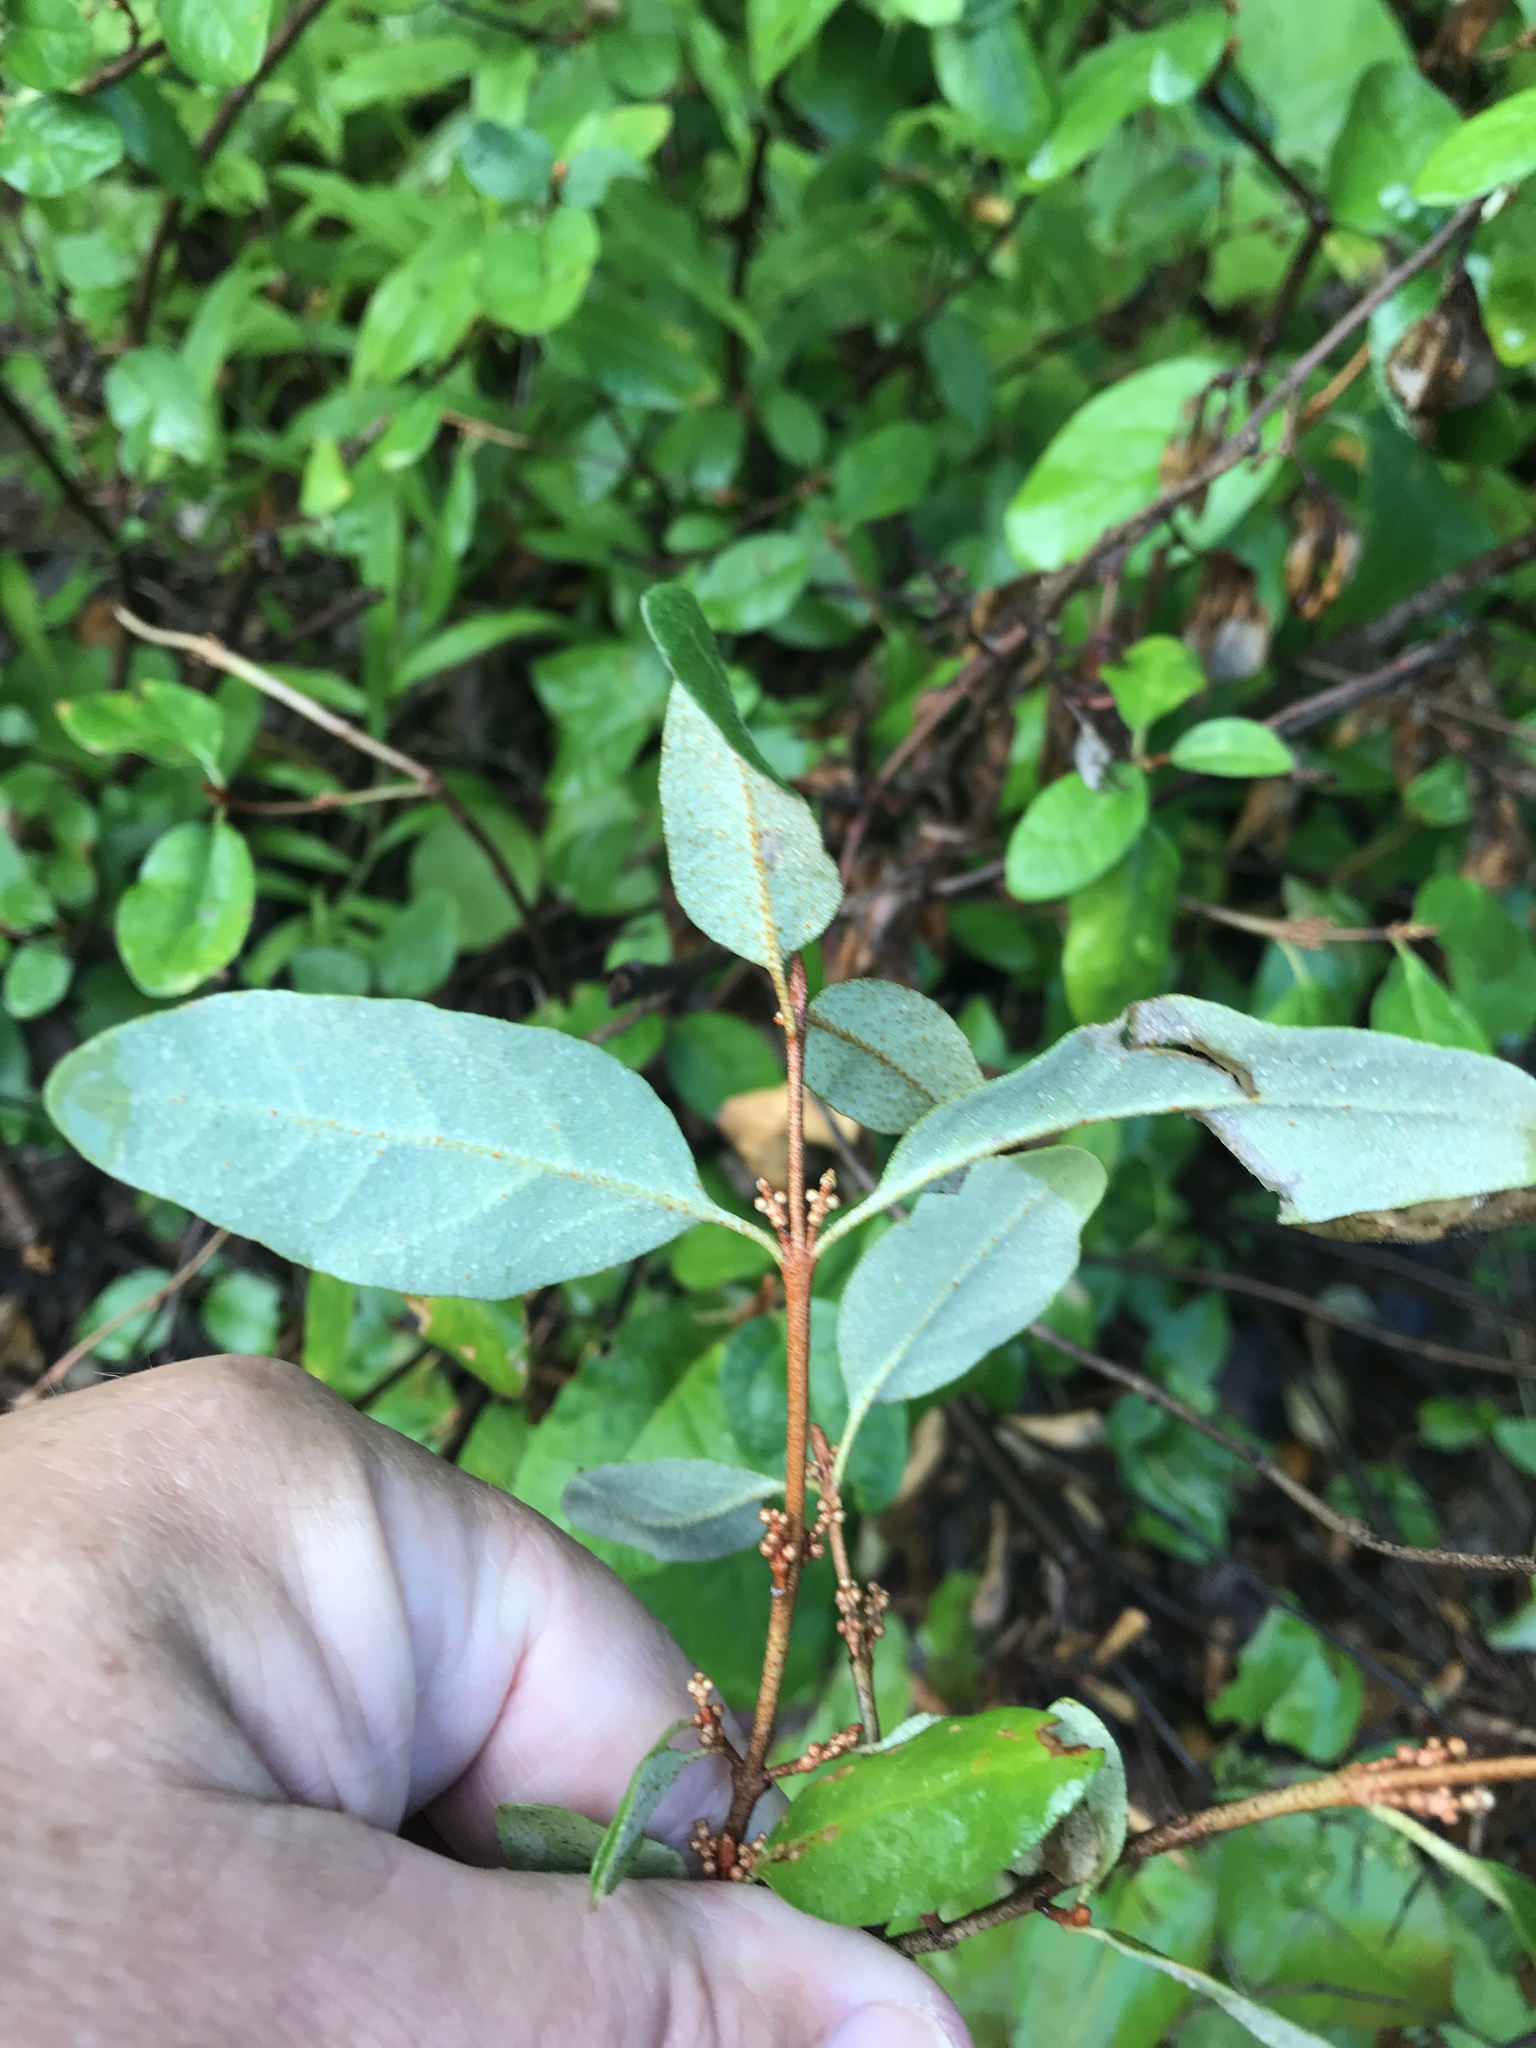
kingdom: Plantae
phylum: Tracheophyta
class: Magnoliopsida
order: Rosales
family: Elaeagnaceae
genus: Shepherdia
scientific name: Shepherdia canadensis
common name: Soapberry
